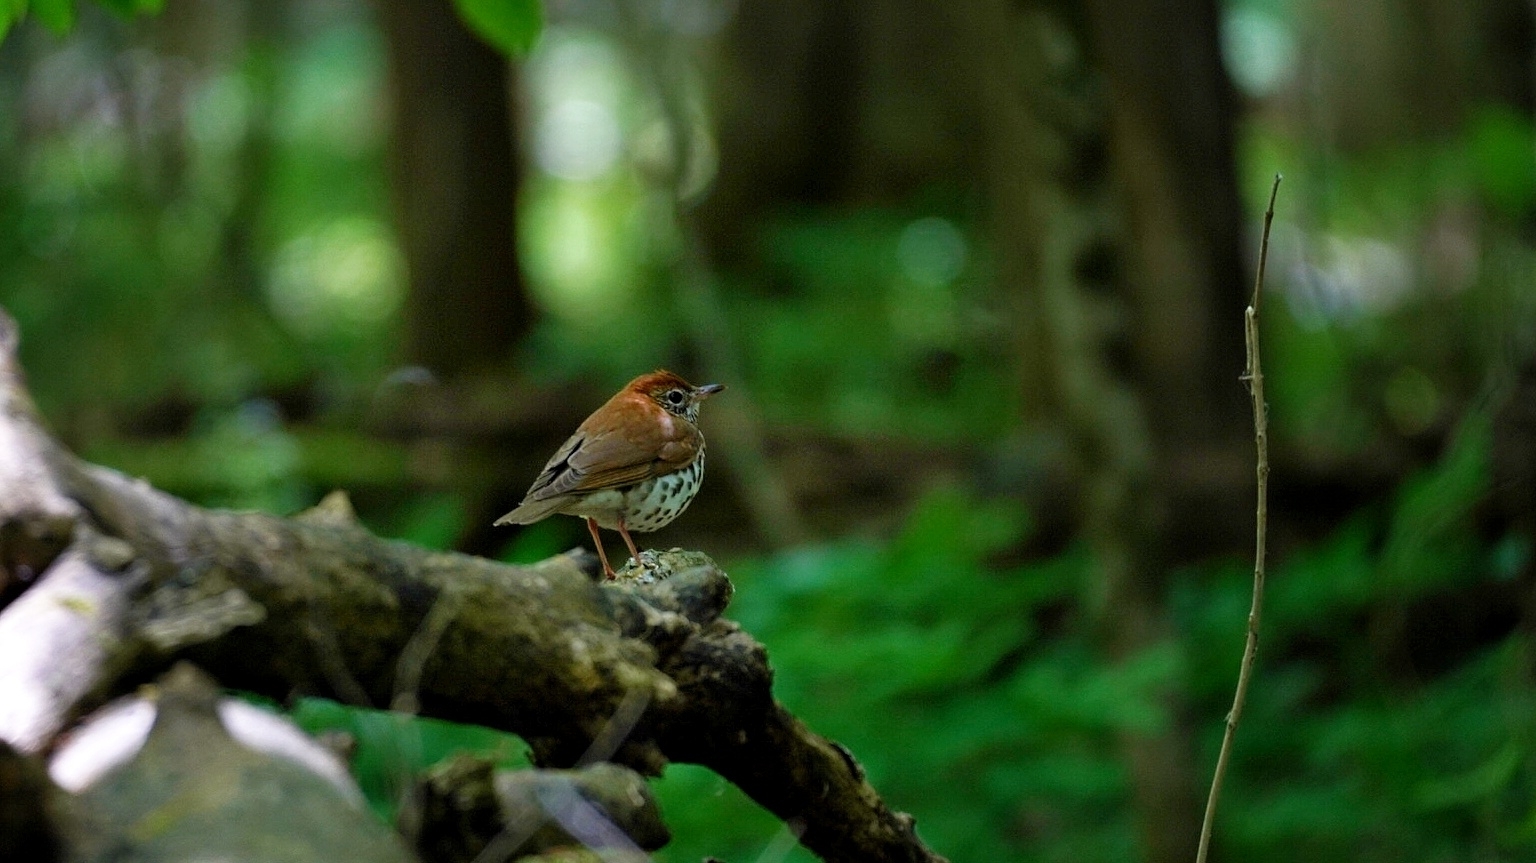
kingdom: Animalia
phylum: Chordata
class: Aves
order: Passeriformes
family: Turdidae
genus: Hylocichla
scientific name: Hylocichla mustelina
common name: Wood thrush
